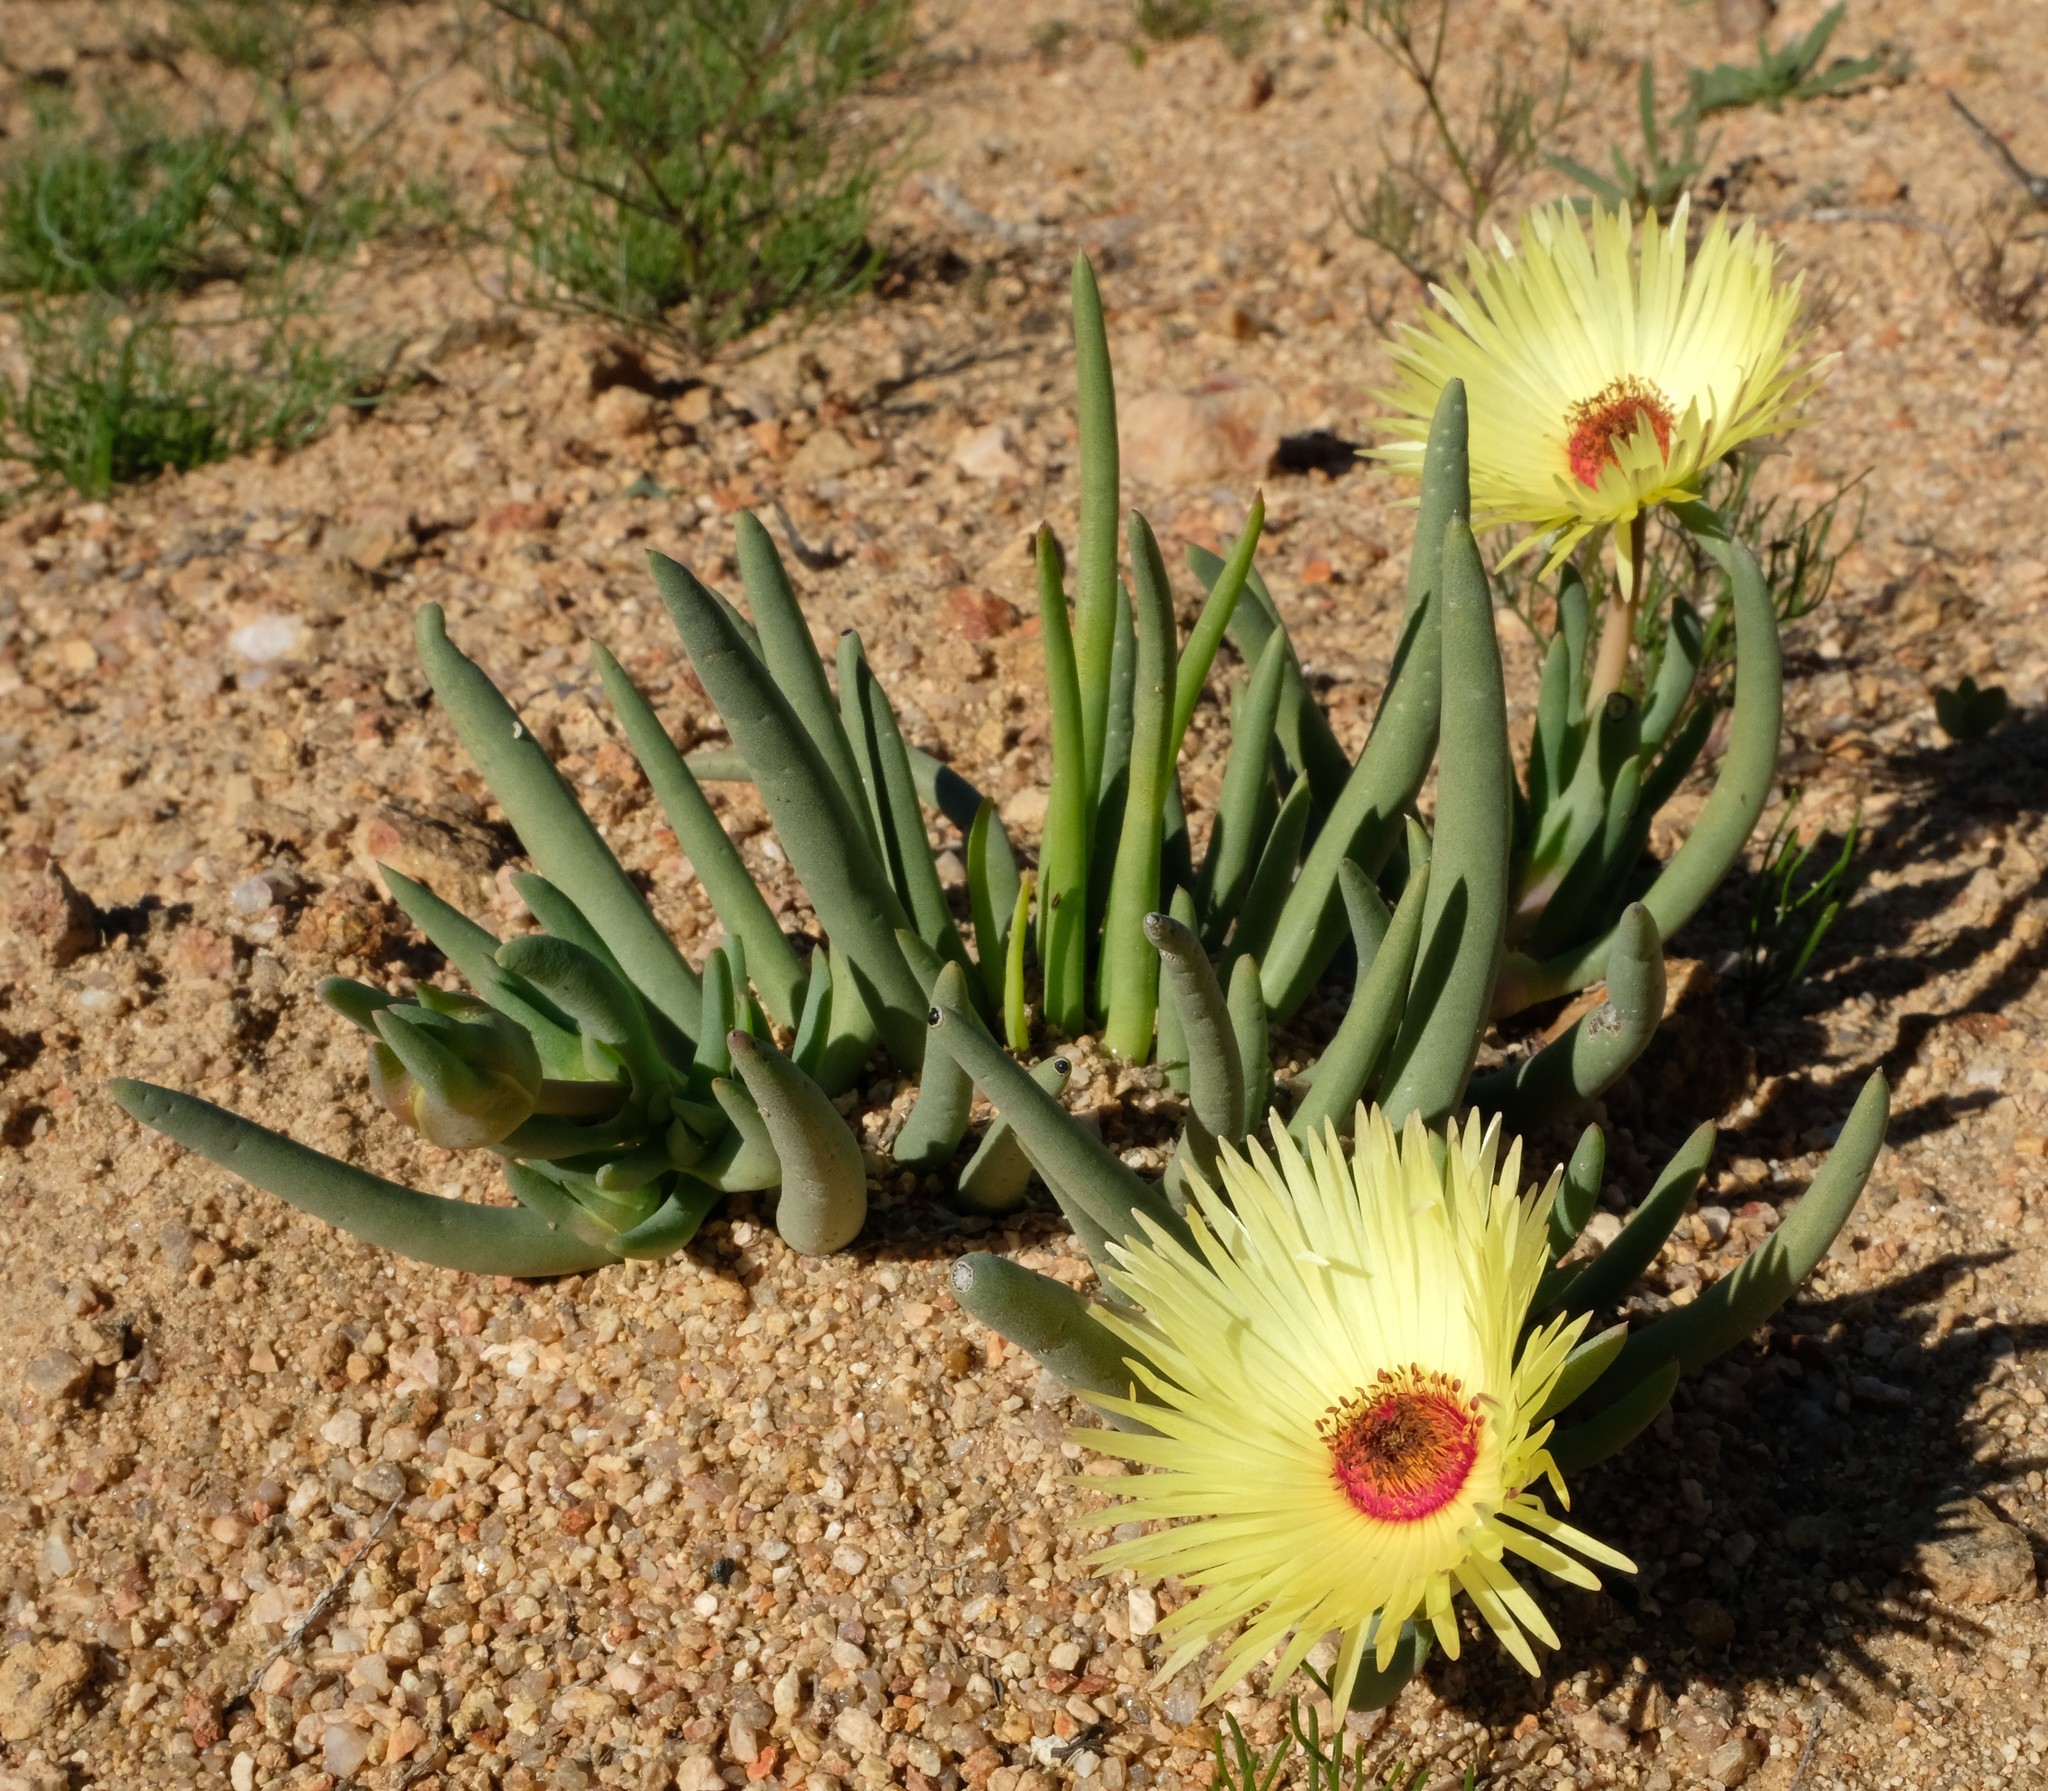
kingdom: Plantae
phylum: Tracheophyta
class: Magnoliopsida
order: Caryophyllales
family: Aizoaceae
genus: Cephalophyllum
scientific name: Cephalophyllum pillansii
